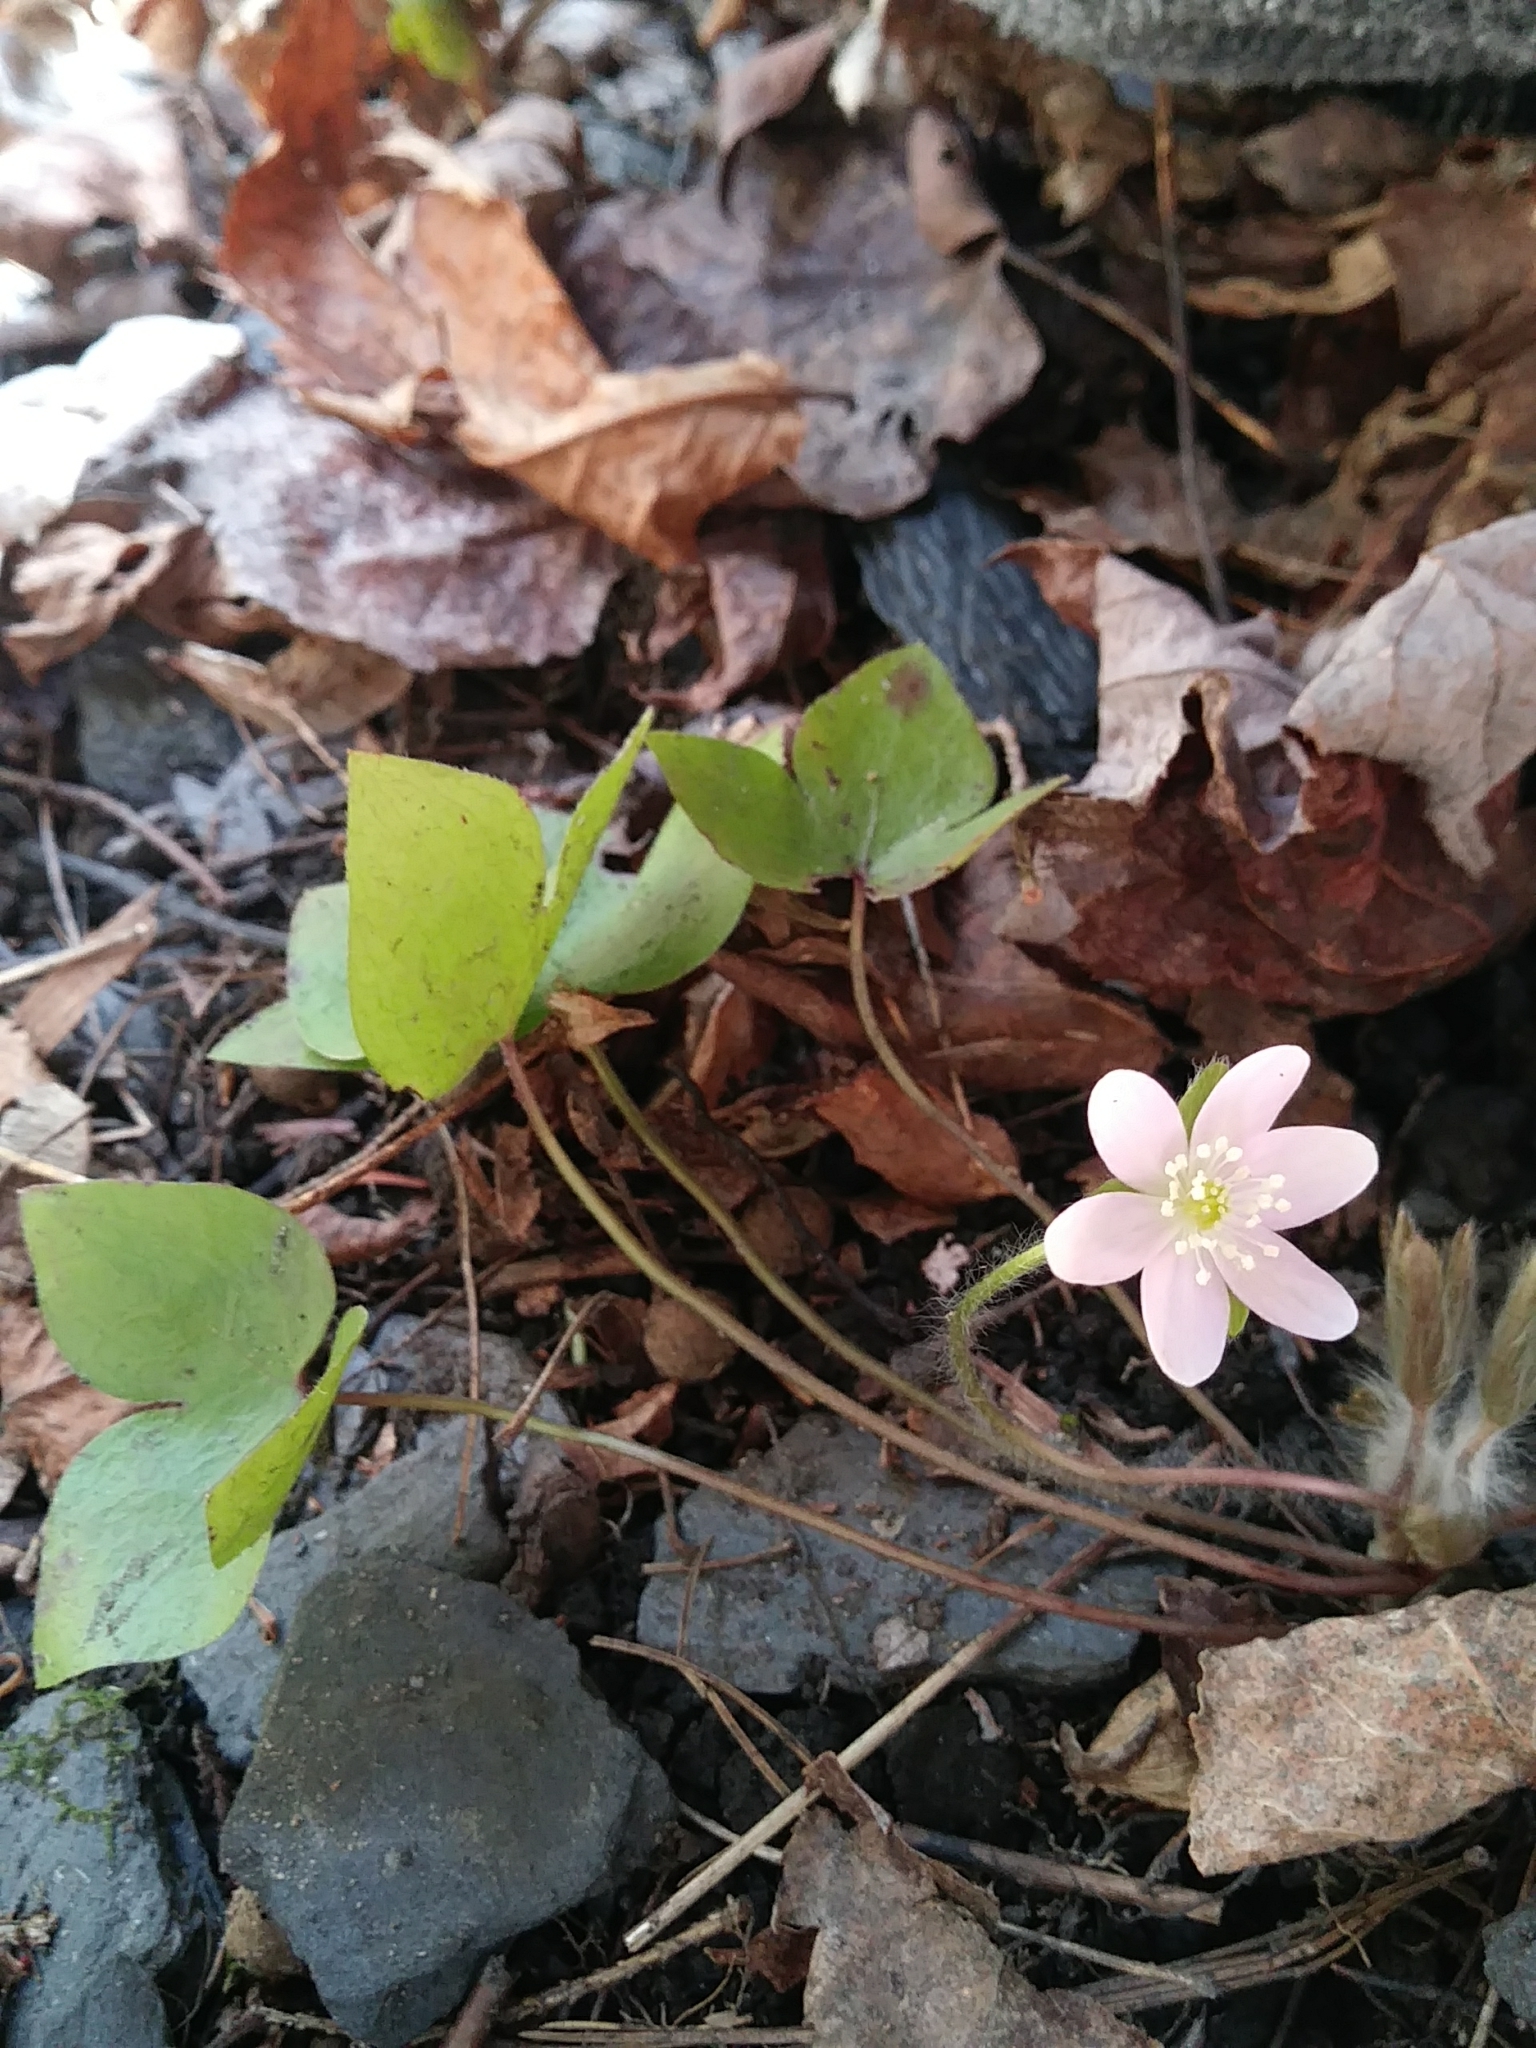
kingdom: Plantae
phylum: Tracheophyta
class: Magnoliopsida
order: Ranunculales
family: Ranunculaceae
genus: Hepatica
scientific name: Hepatica acutiloba
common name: Sharp-lobed hepatica
